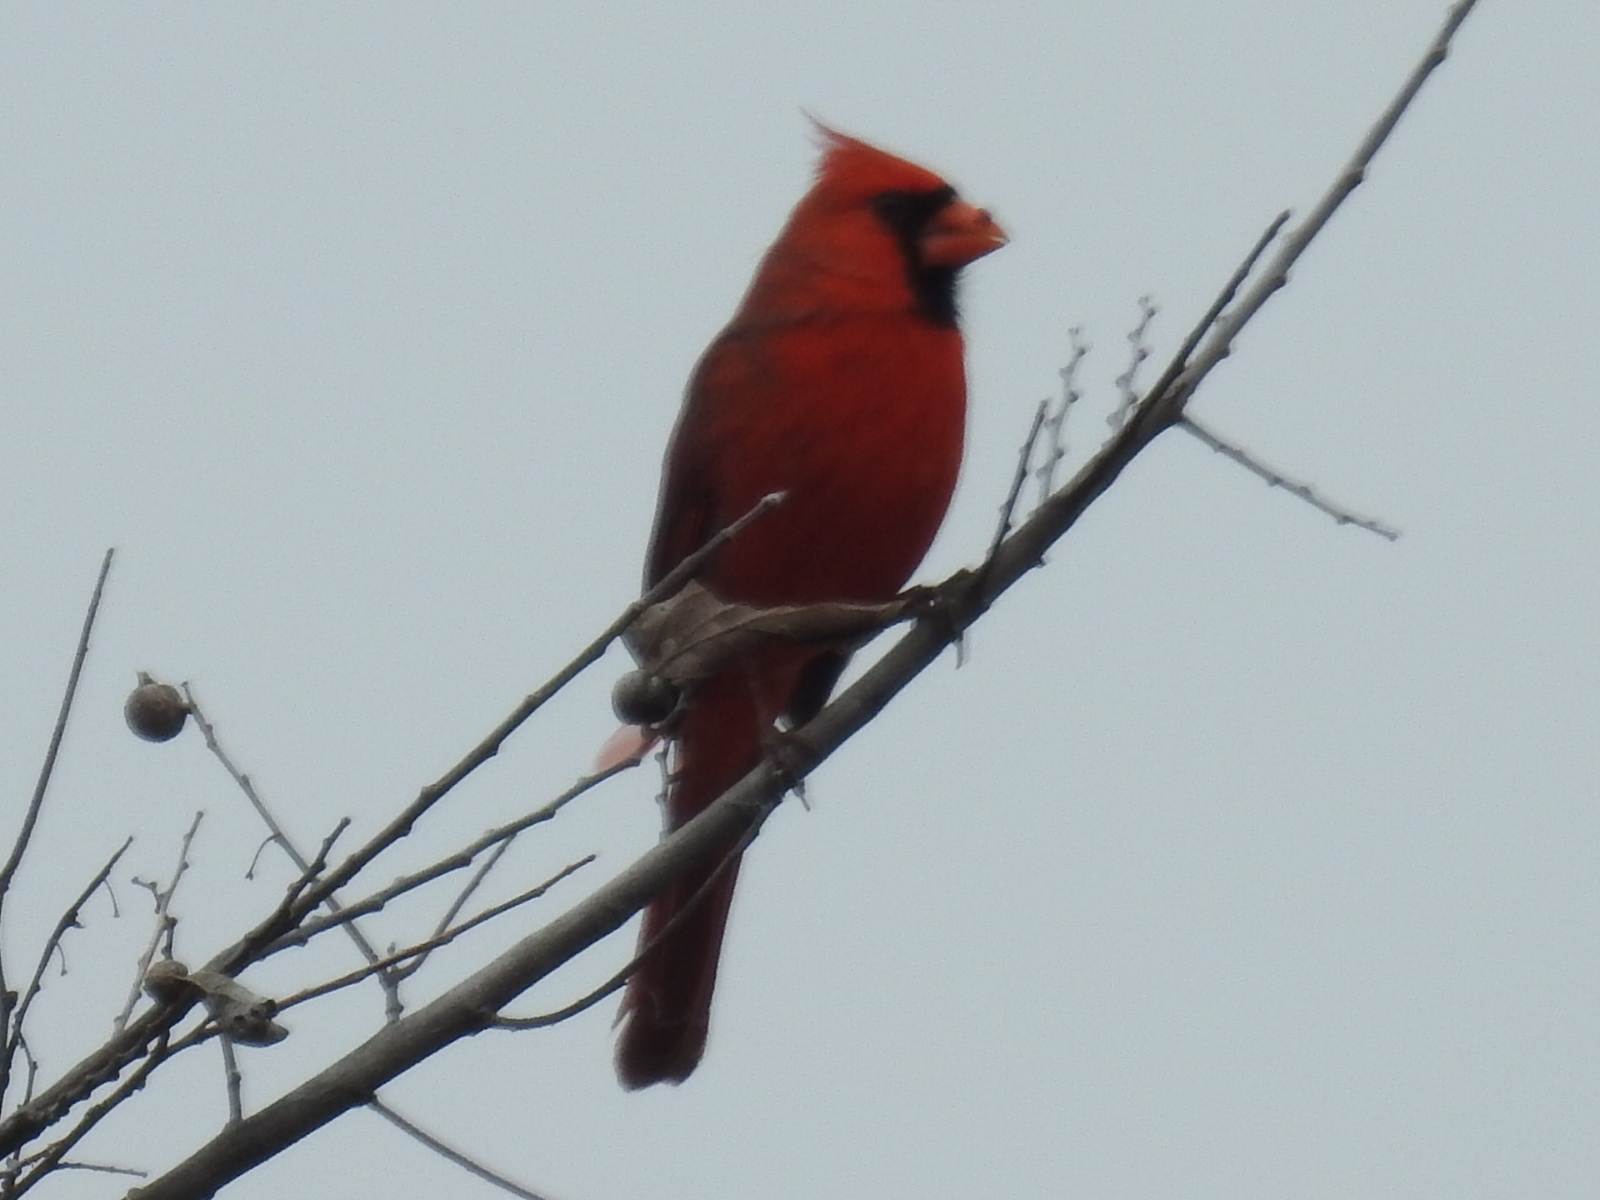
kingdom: Animalia
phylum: Chordata
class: Aves
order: Passeriformes
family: Cardinalidae
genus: Cardinalis
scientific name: Cardinalis cardinalis
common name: Northern cardinal
